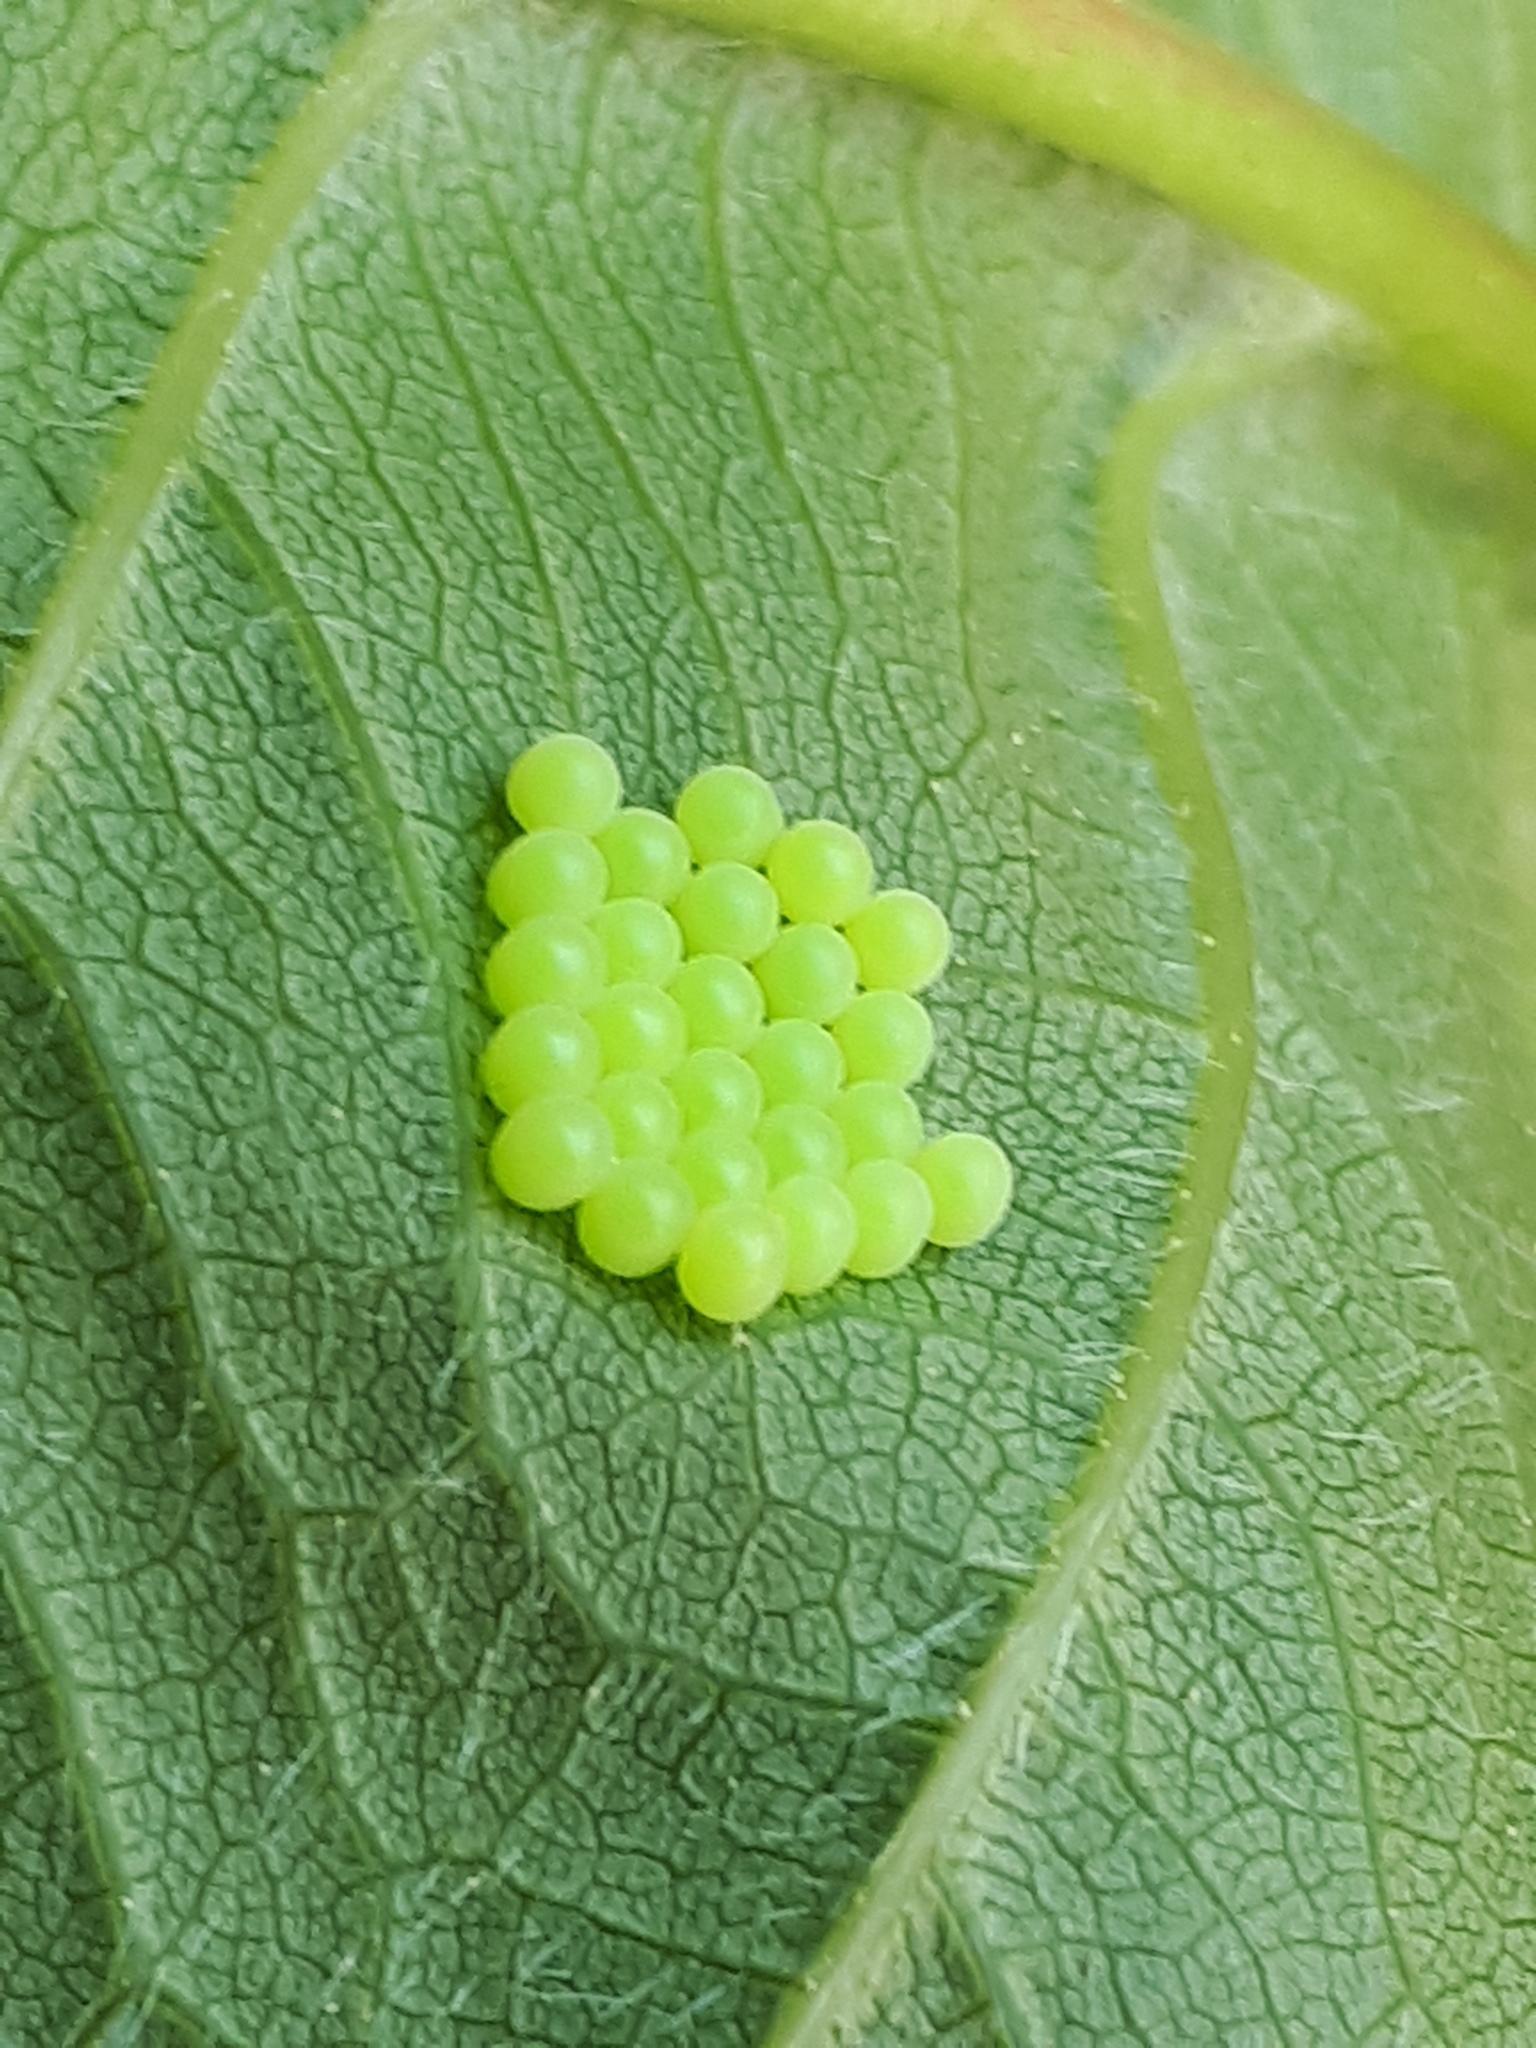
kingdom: Animalia
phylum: Arthropoda
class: Insecta
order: Hemiptera
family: Pentatomidae
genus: Palomena
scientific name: Palomena prasina
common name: Green shieldbug
